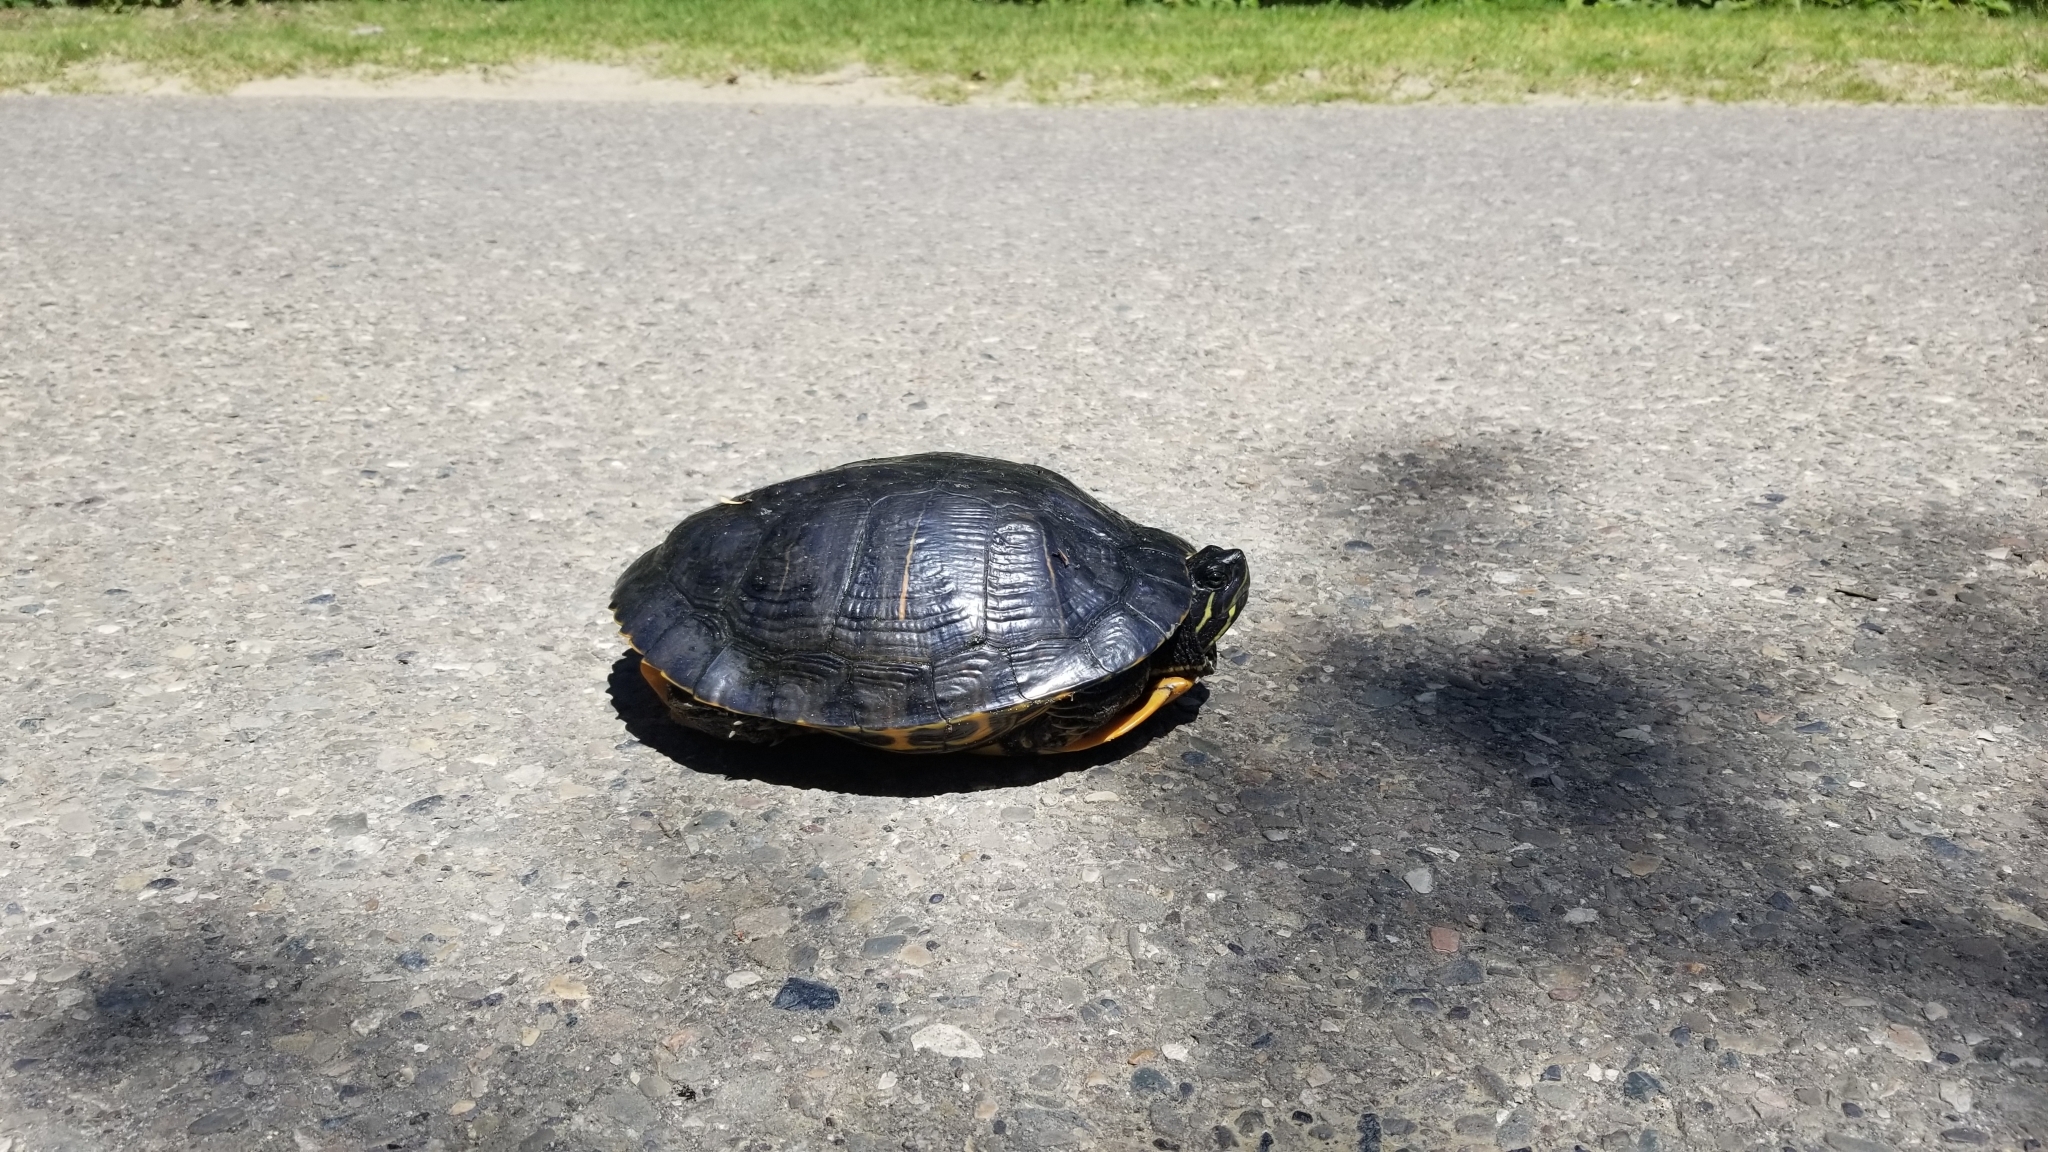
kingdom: Animalia
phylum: Chordata
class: Testudines
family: Emydidae
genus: Trachemys
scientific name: Trachemys scripta
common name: Slider
